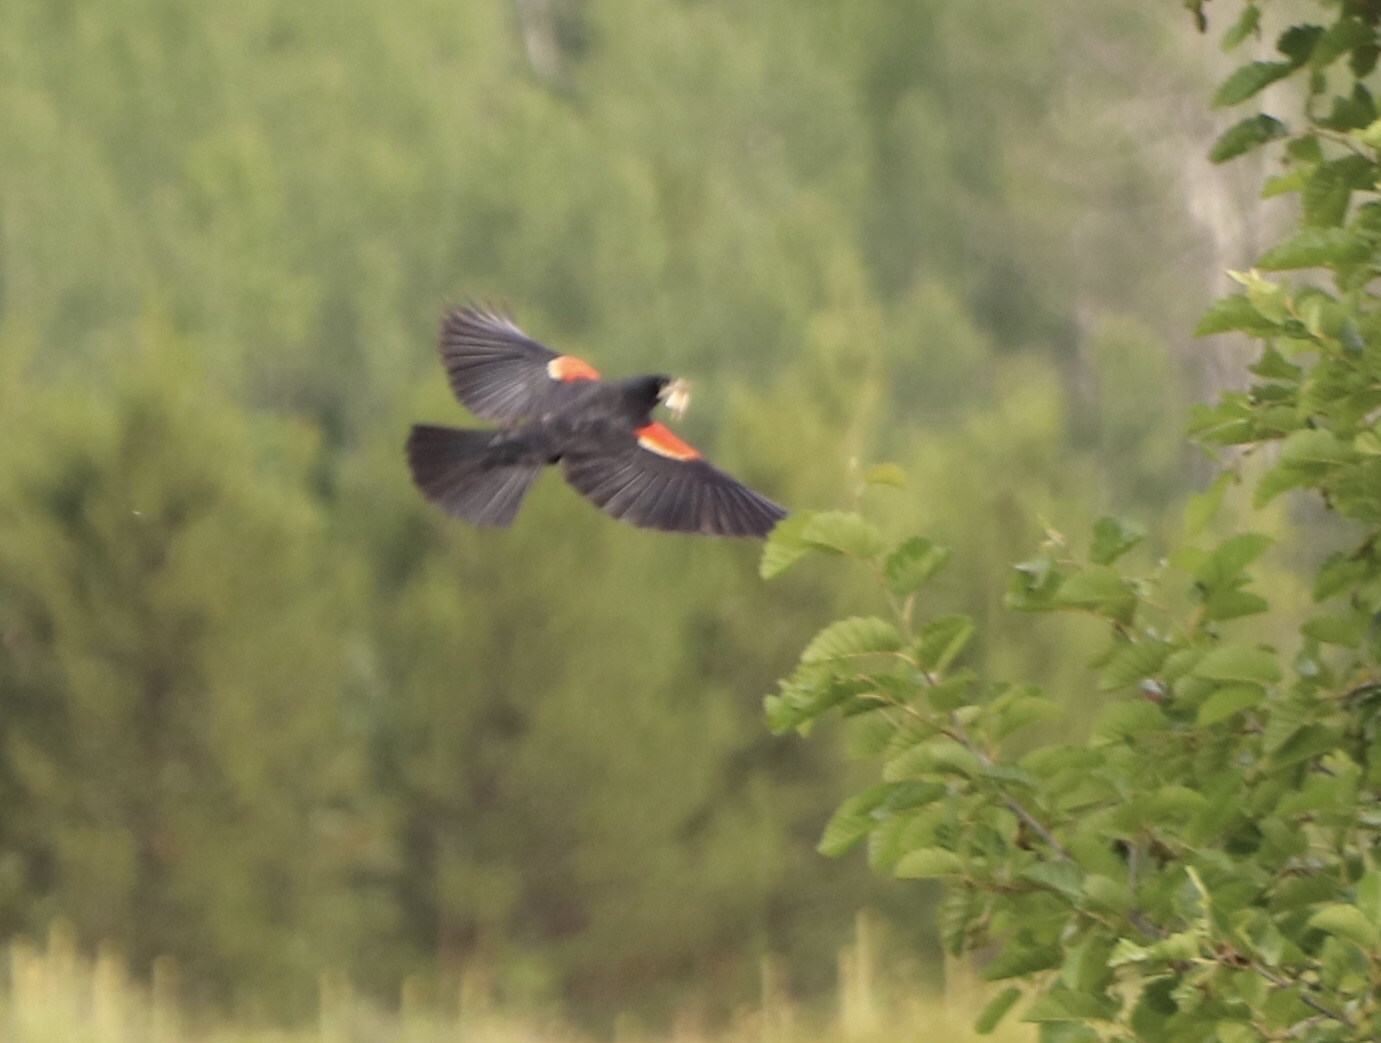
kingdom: Animalia
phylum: Chordata
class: Aves
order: Passeriformes
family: Icteridae
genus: Agelaius
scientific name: Agelaius phoeniceus
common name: Red-winged blackbird
